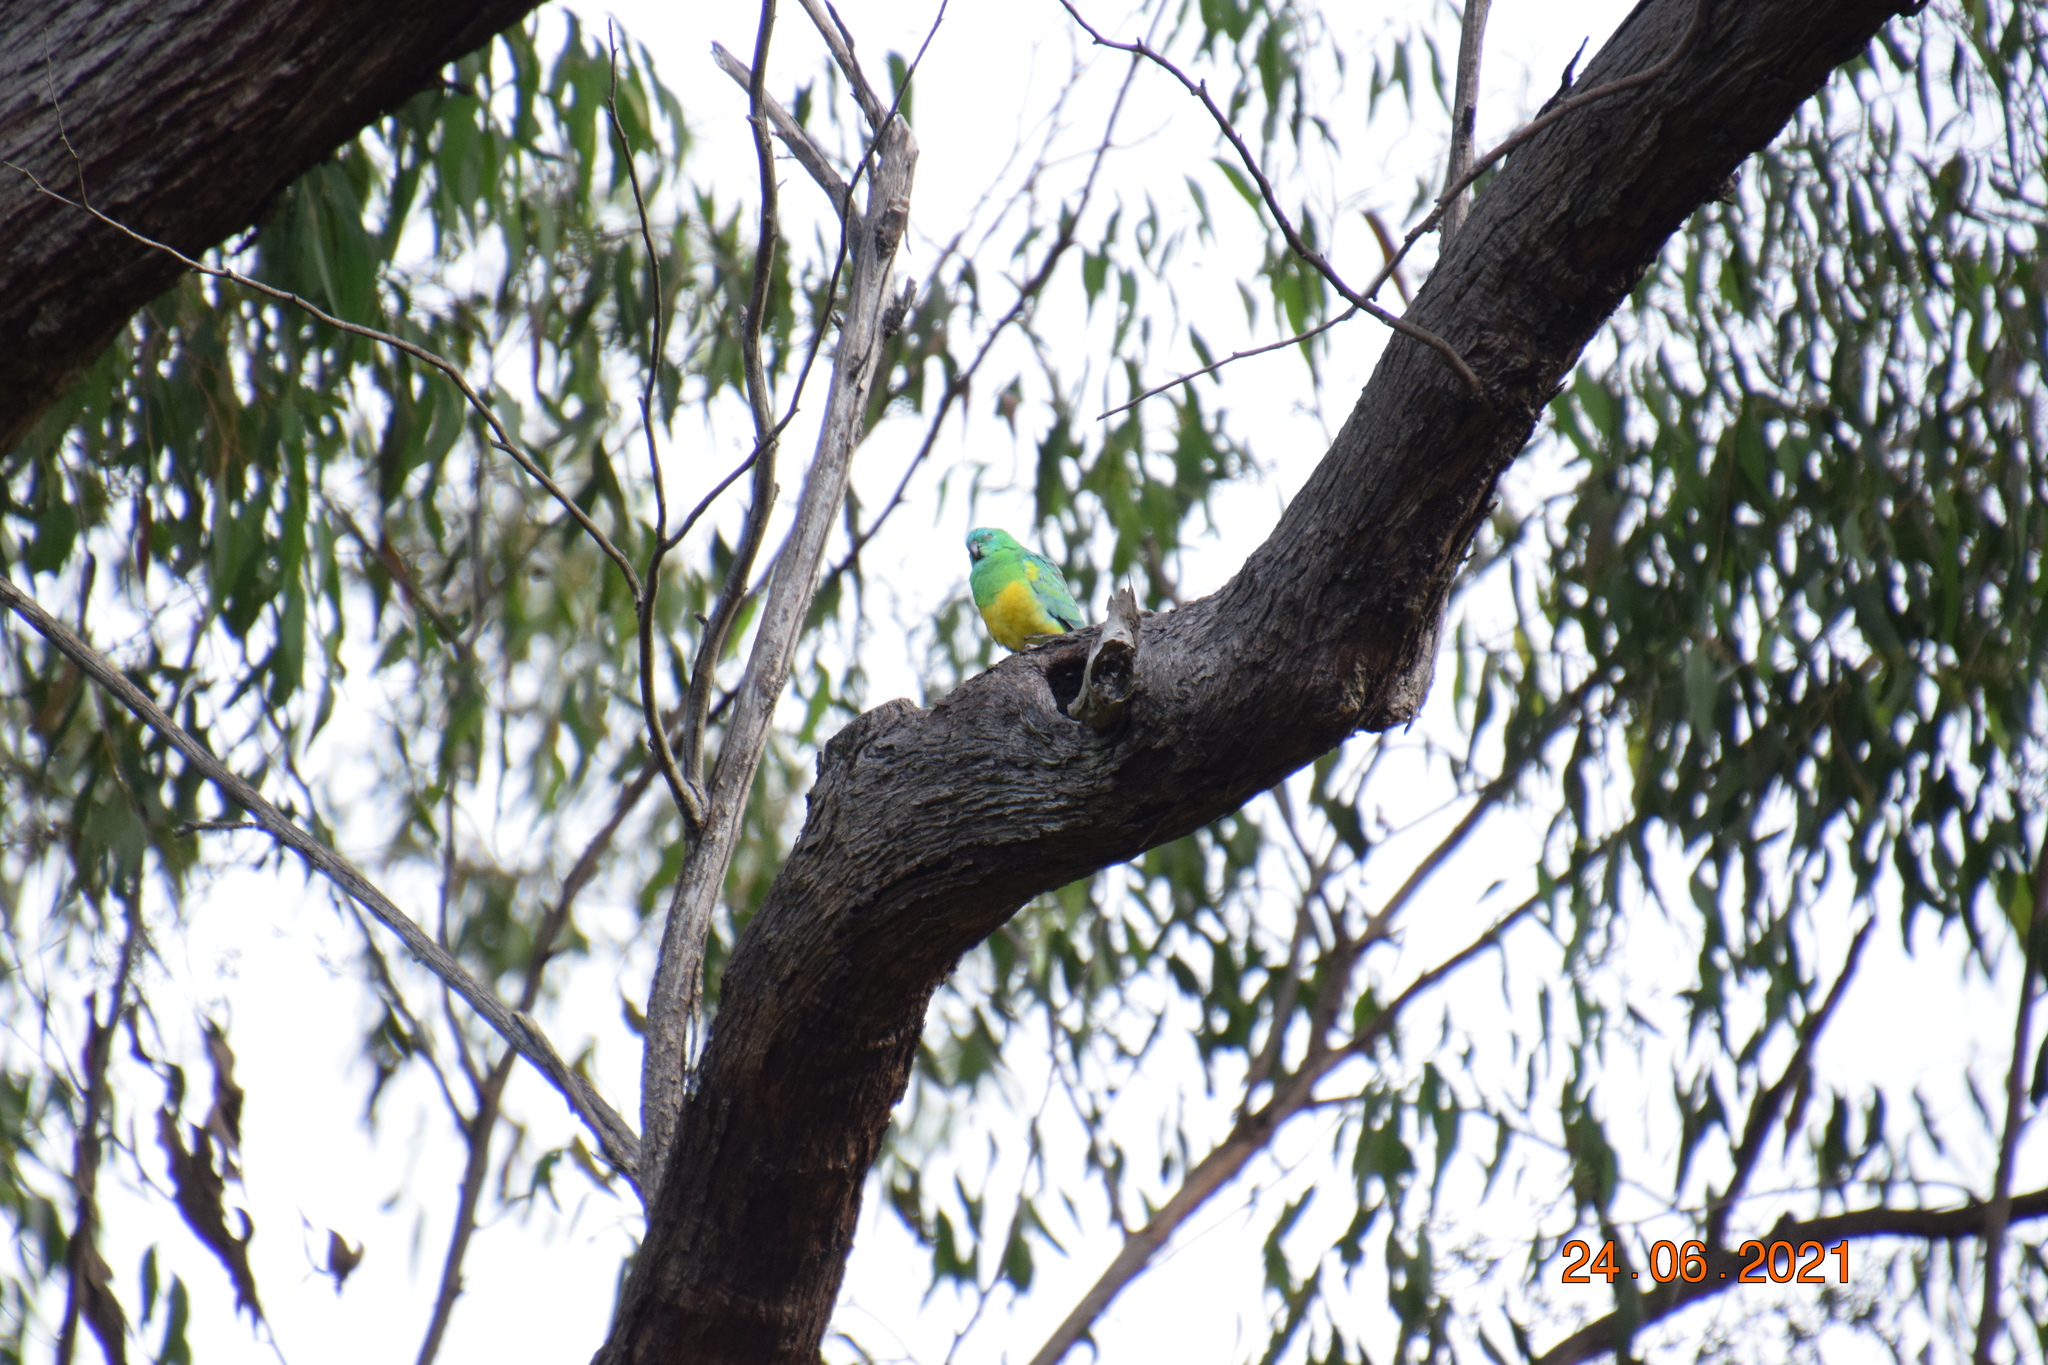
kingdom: Animalia
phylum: Chordata
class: Aves
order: Psittaciformes
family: Psittacidae
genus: Psephotus
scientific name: Psephotus haematonotus
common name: Red-rumped parrot
